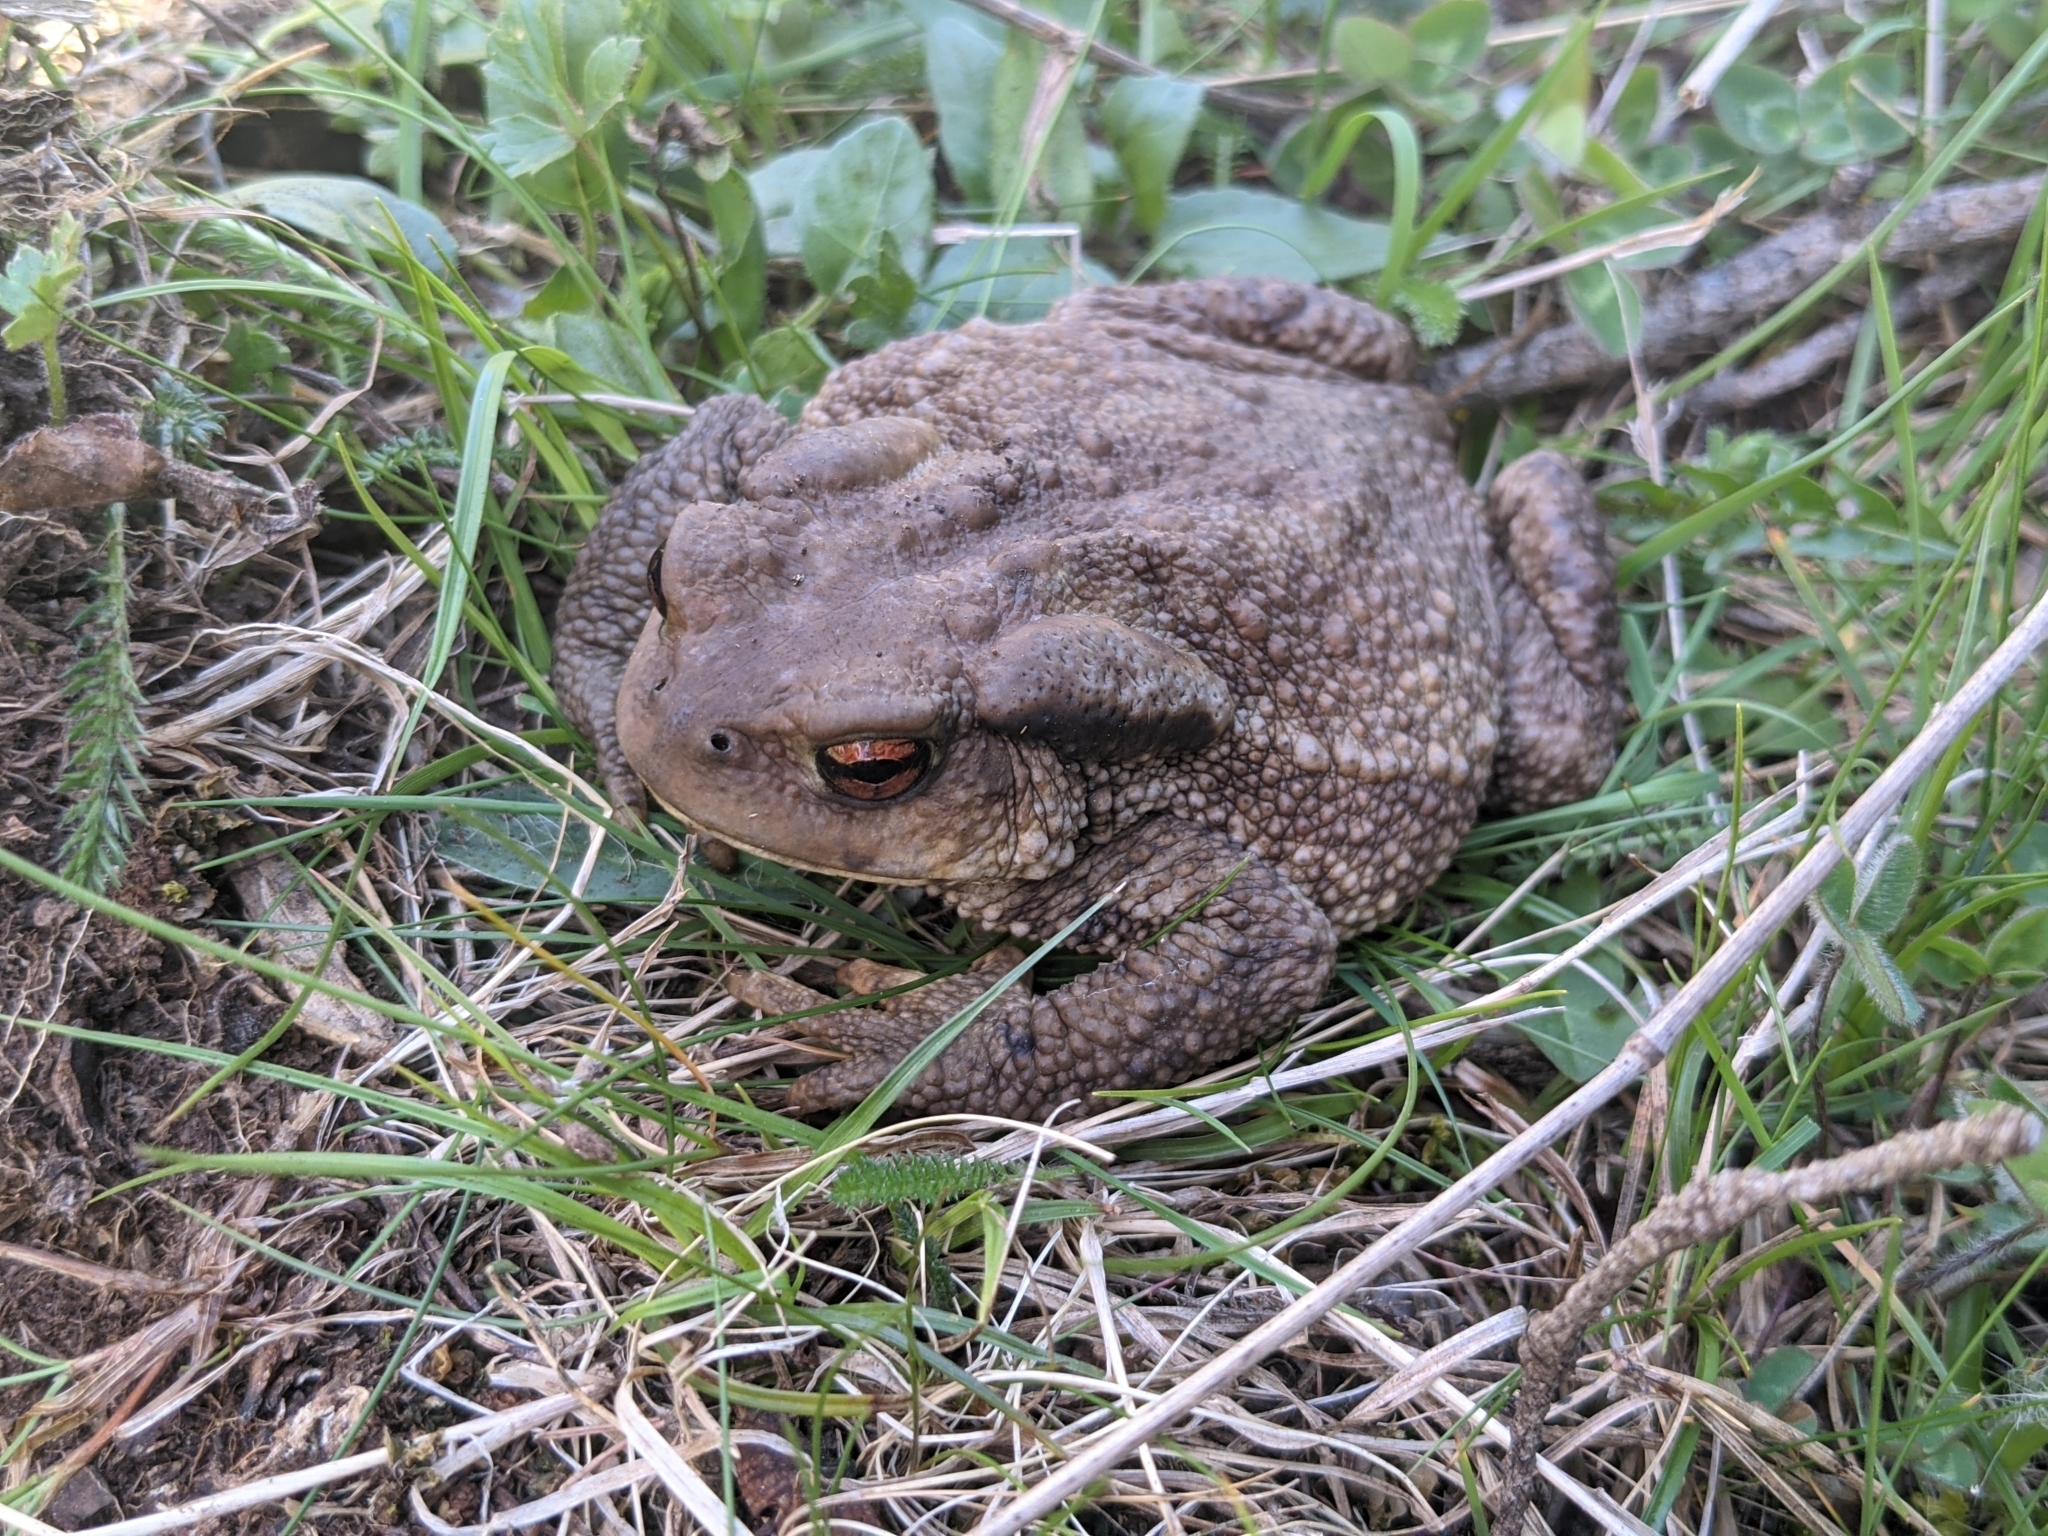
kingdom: Animalia
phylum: Chordata
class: Amphibia
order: Anura
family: Bufonidae
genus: Bufo
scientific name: Bufo spinosus
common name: Western common toad
